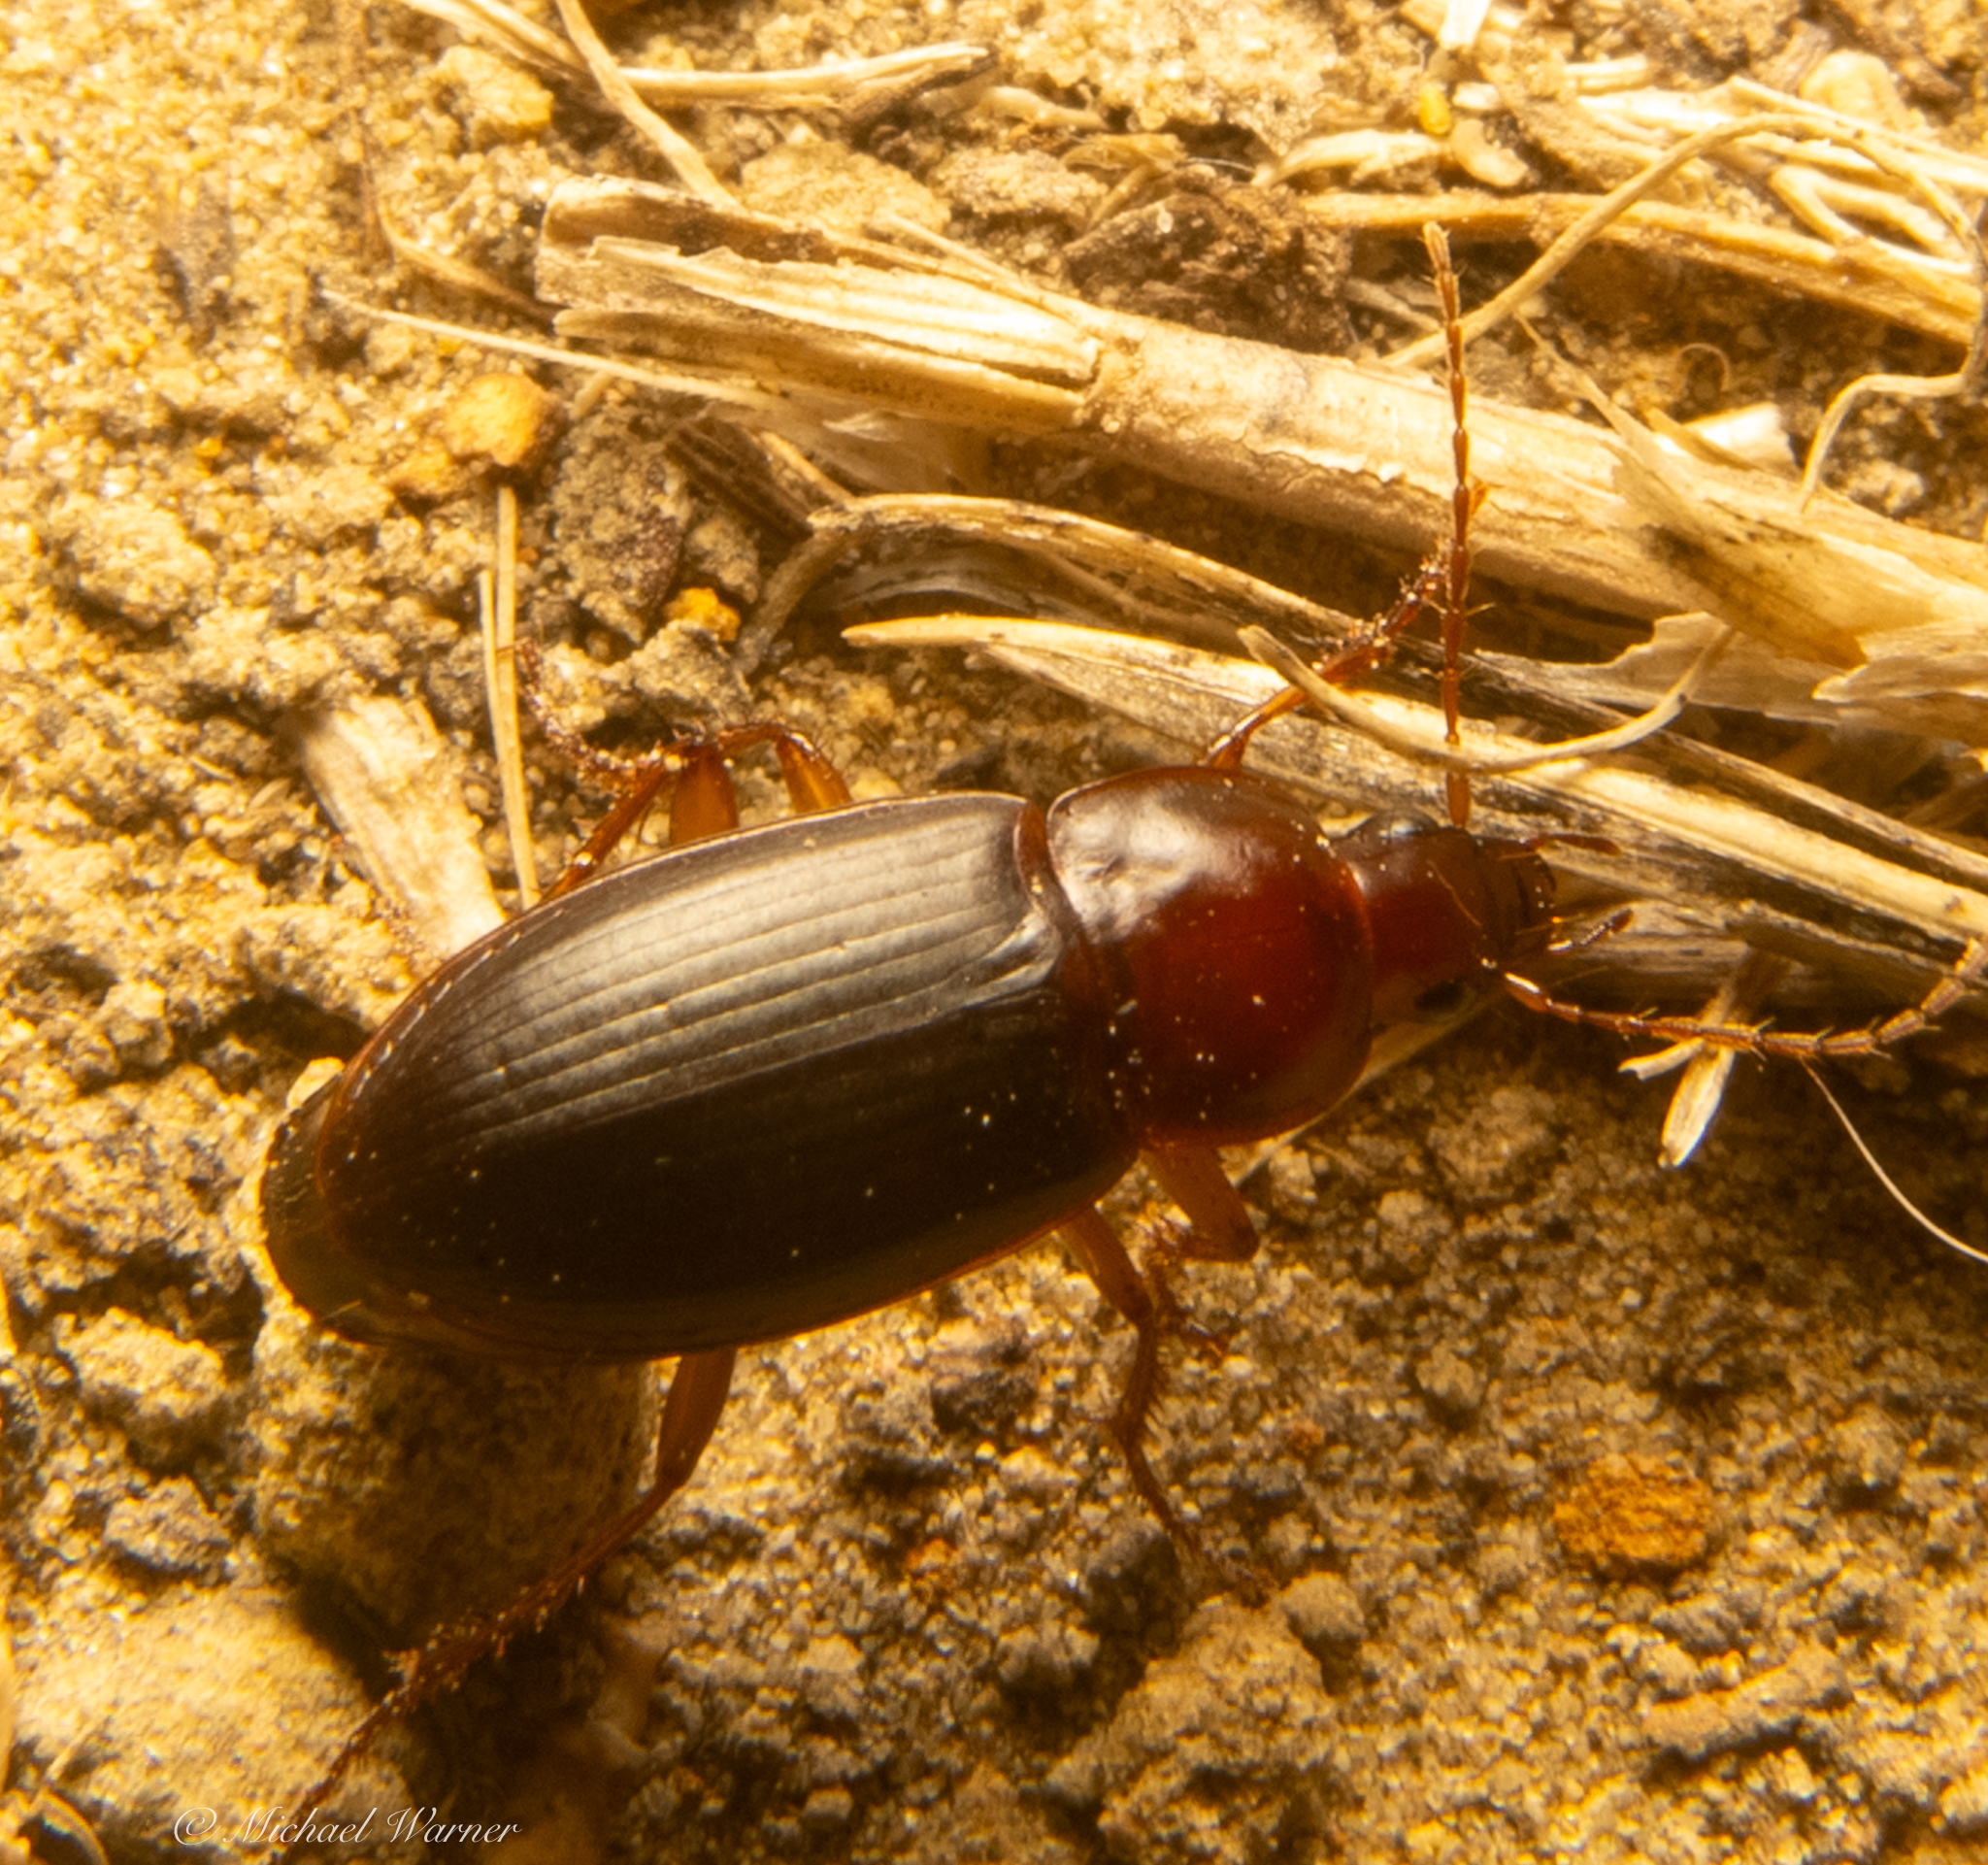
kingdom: Animalia
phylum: Arthropoda
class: Insecta
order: Coleoptera
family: Carabidae
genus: Calathus
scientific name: Calathus ruficollis
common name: Red-collared harp ground beetle
